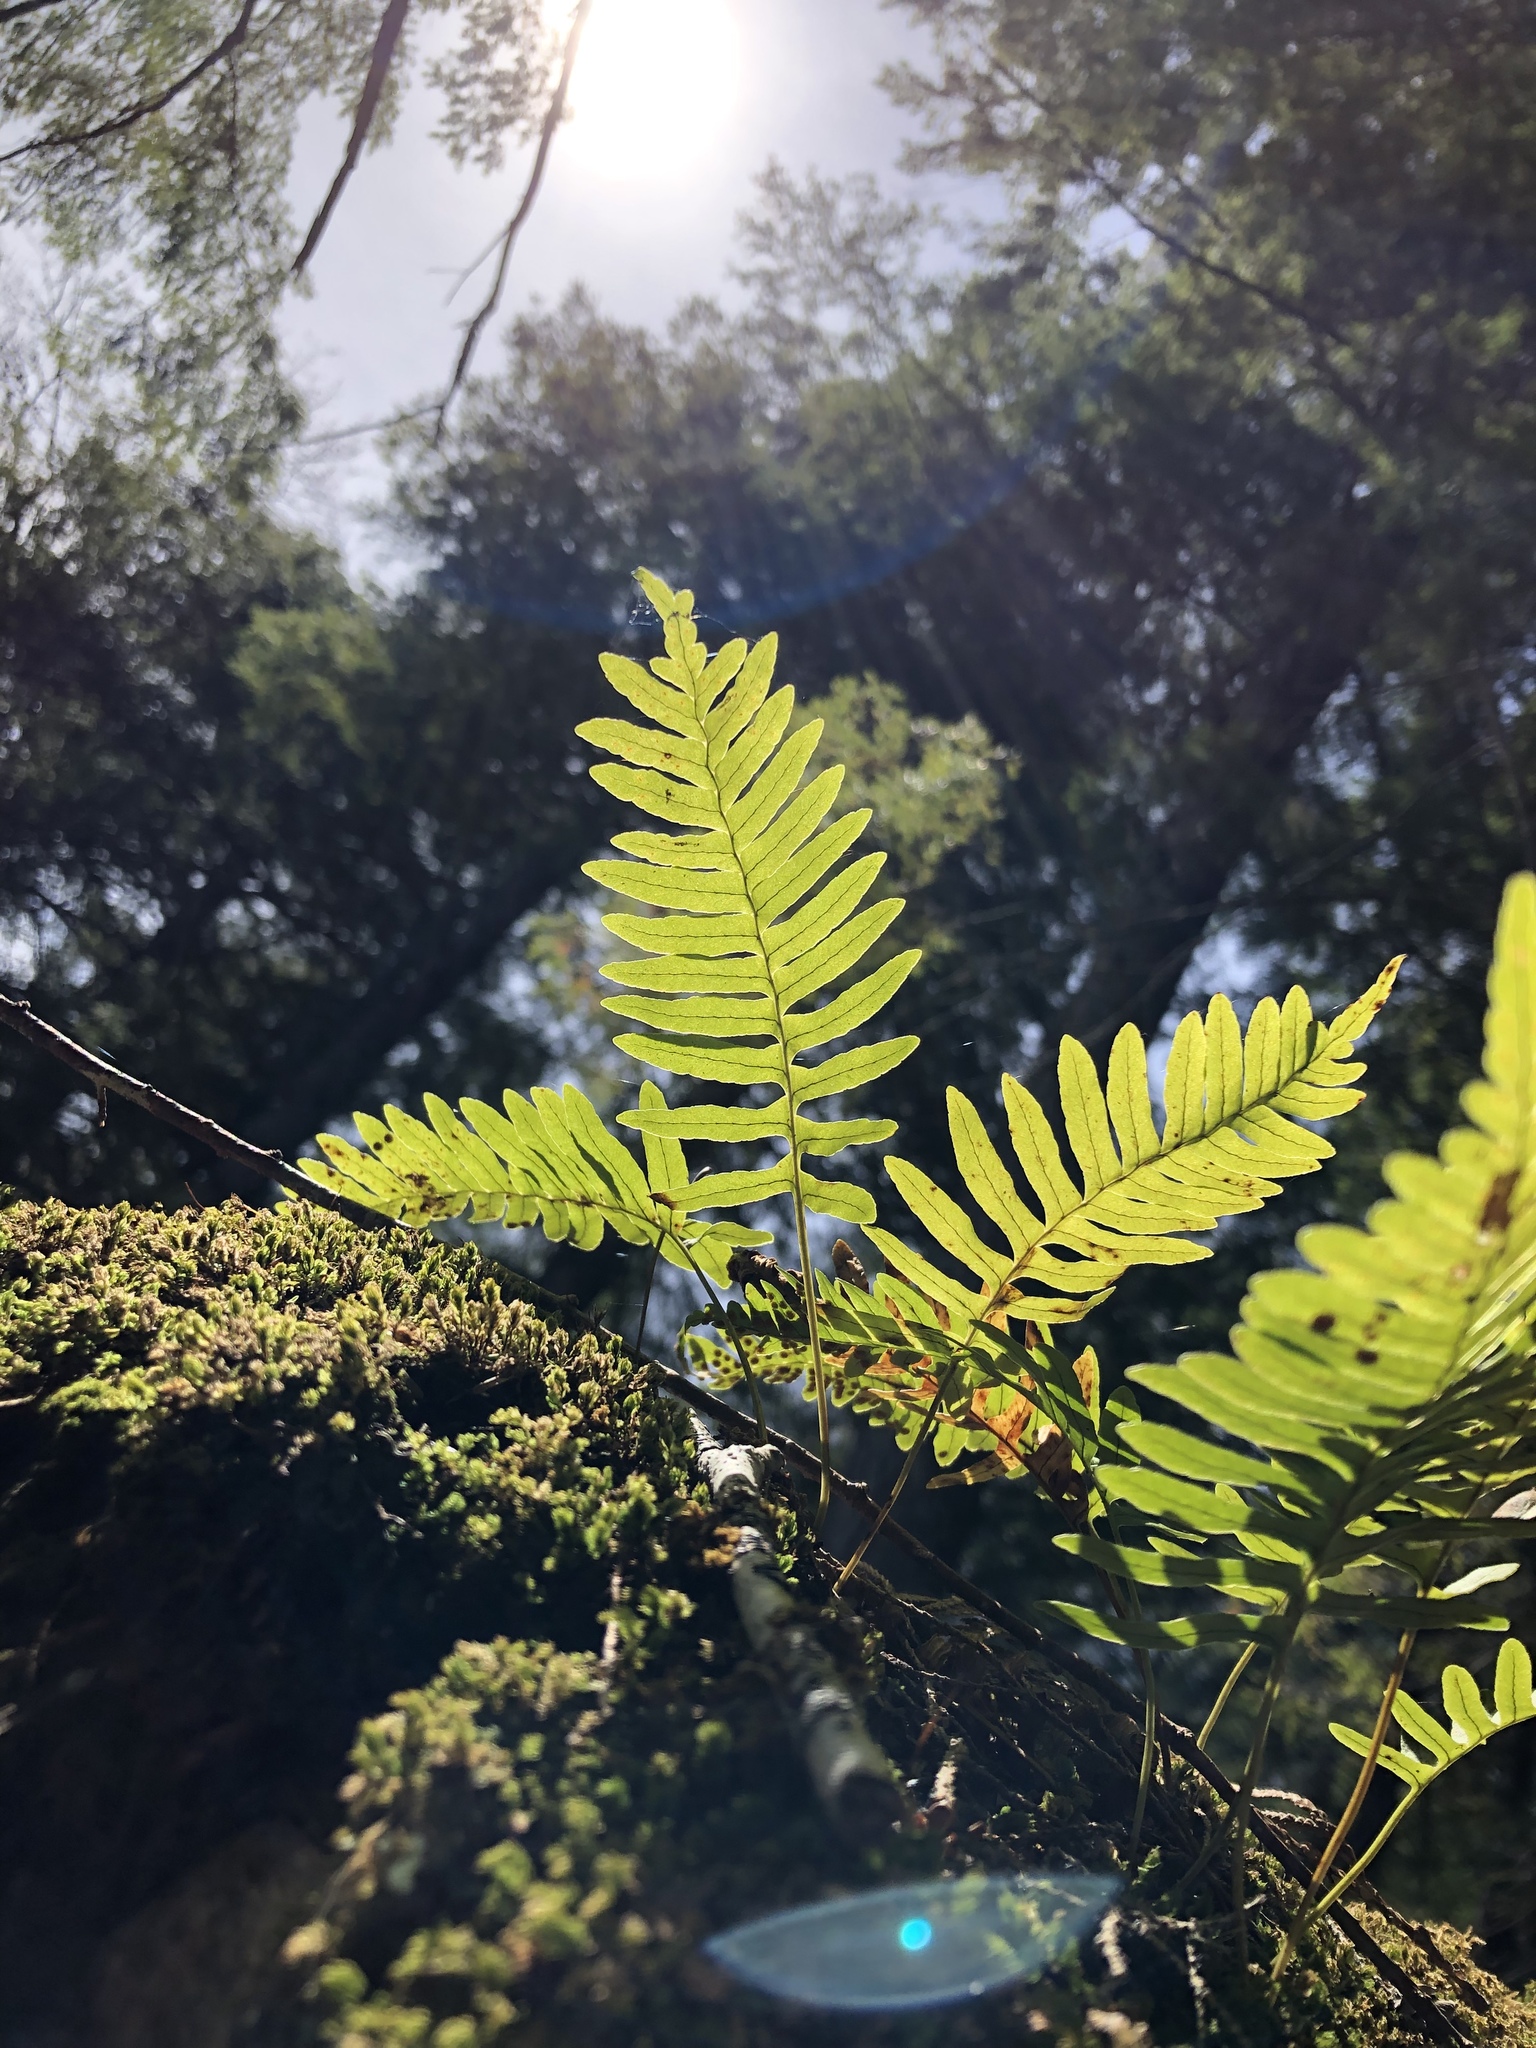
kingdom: Plantae
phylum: Tracheophyta
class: Polypodiopsida
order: Polypodiales
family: Polypodiaceae
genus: Polypodium
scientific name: Polypodium virginianum
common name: American wall fern
